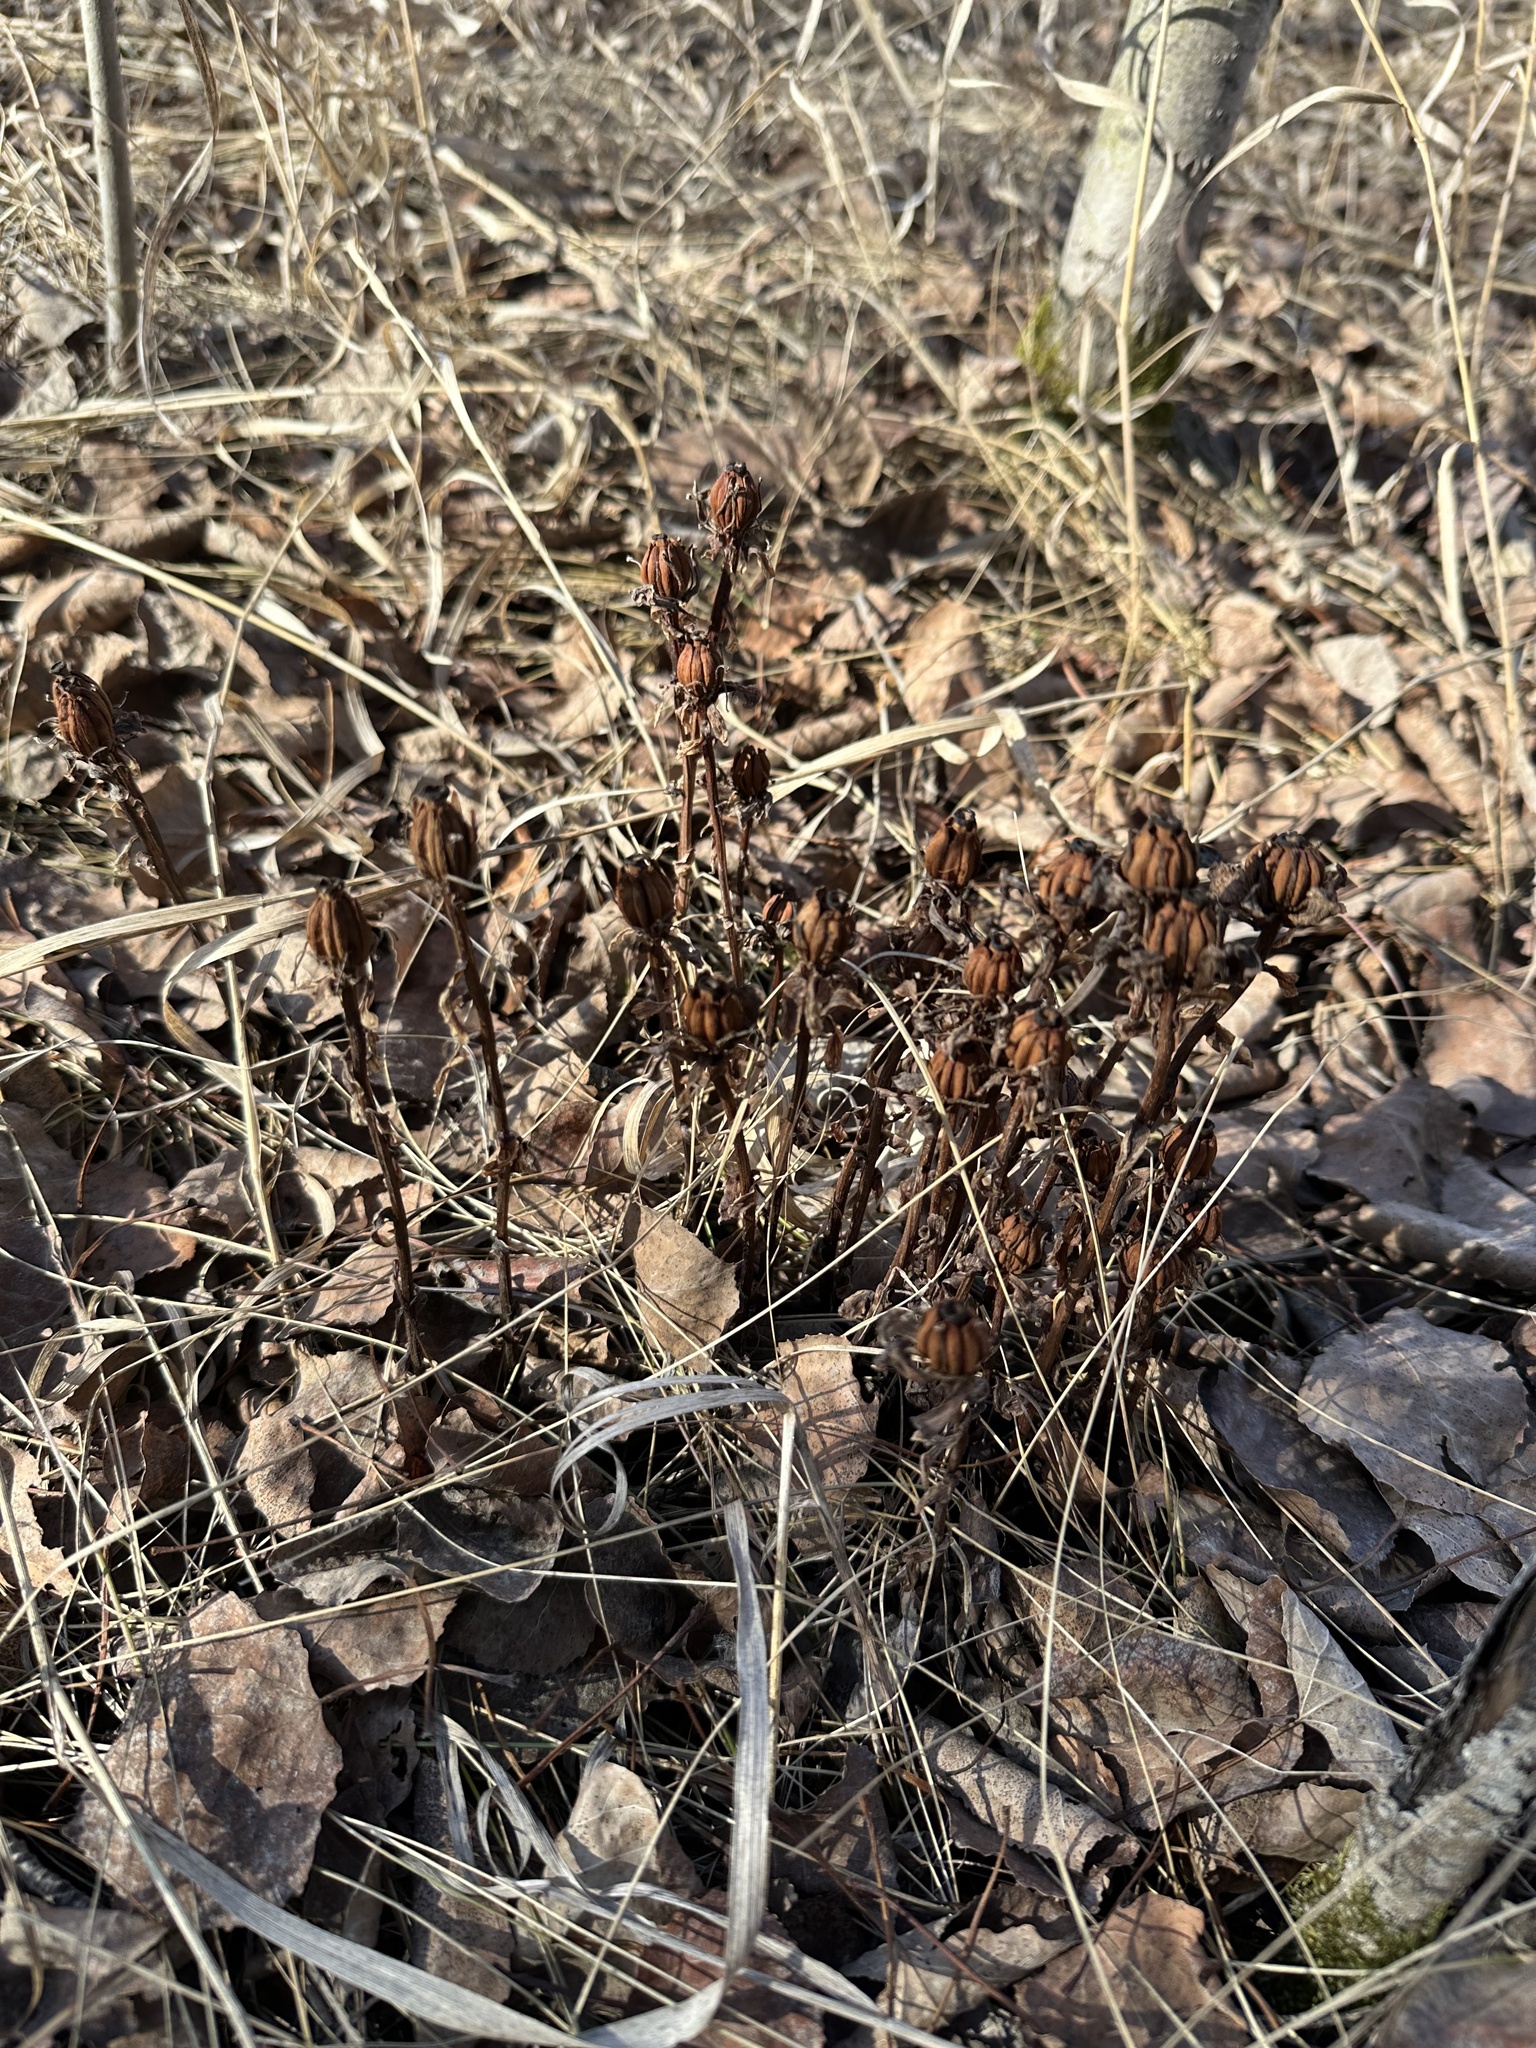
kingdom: Plantae
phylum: Tracheophyta
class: Magnoliopsida
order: Ericales
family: Ericaceae
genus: Monotropa
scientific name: Monotropa uniflora
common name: Convulsion root
